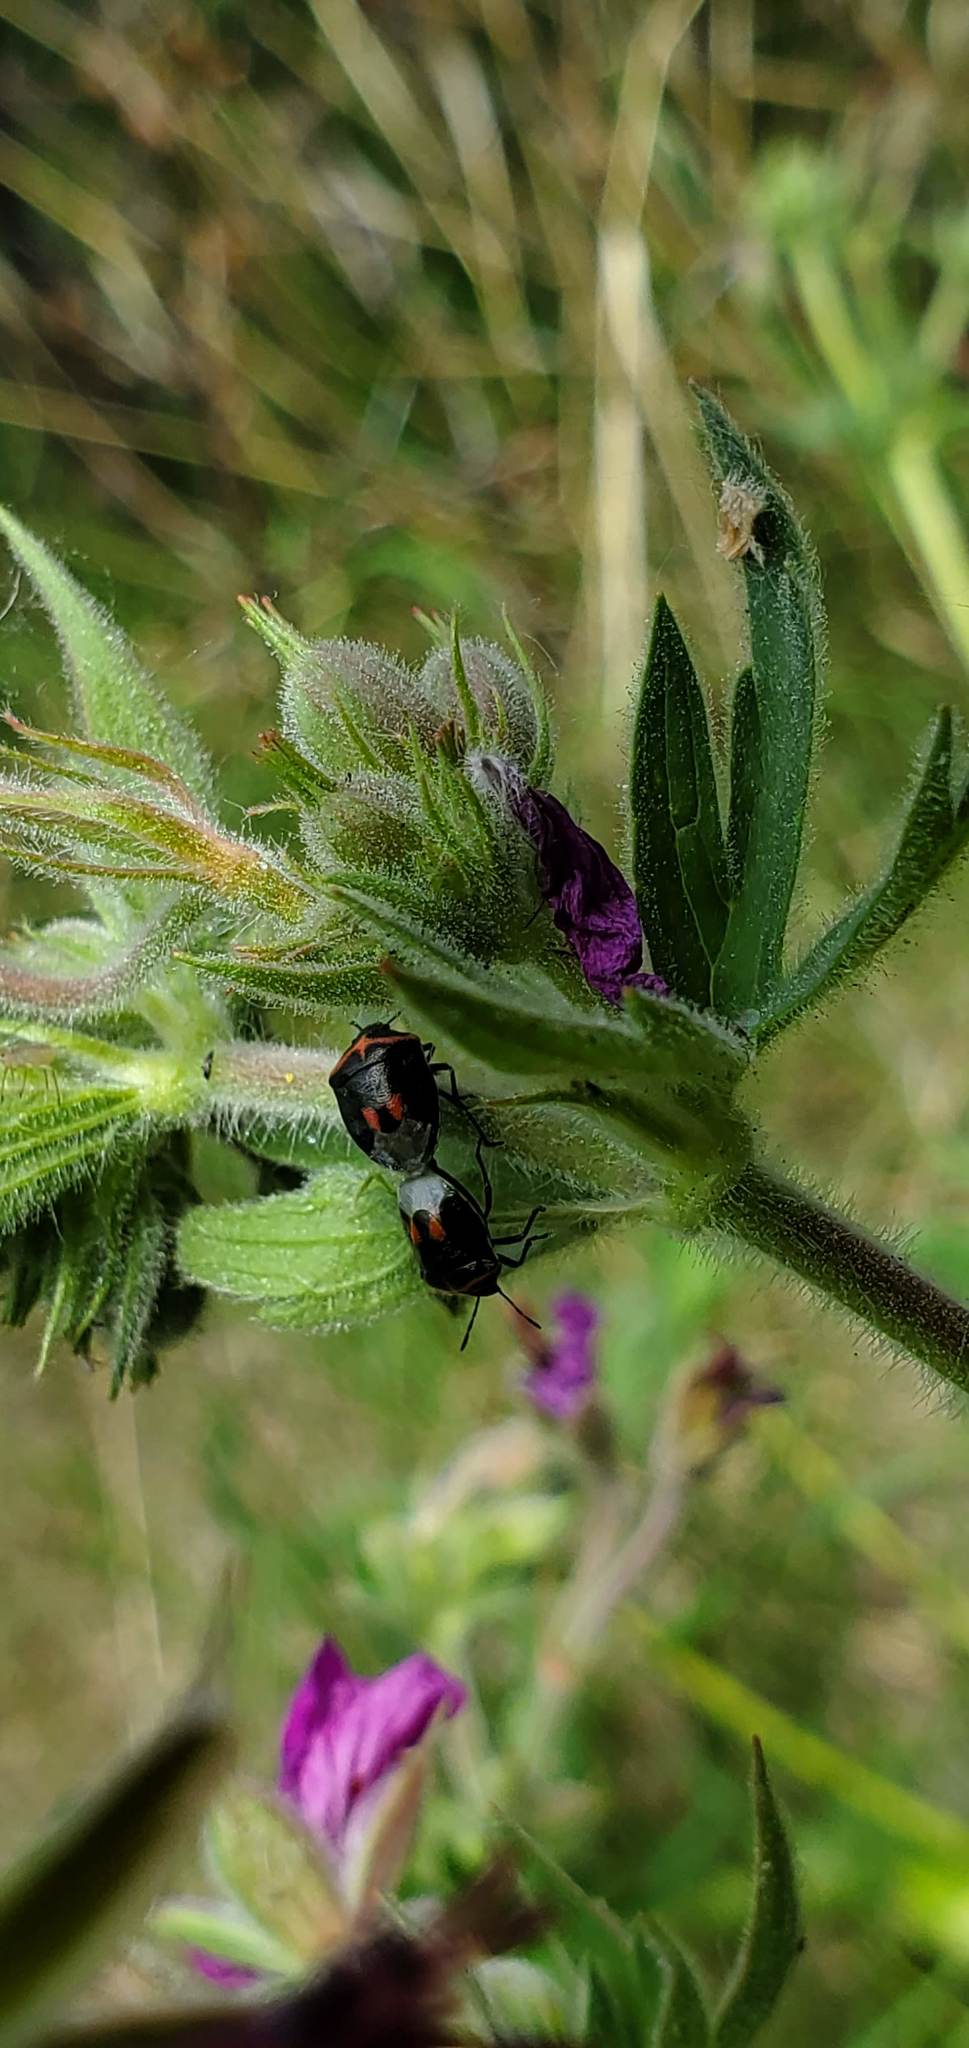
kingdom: Animalia
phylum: Arthropoda
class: Insecta
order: Hemiptera
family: Pentatomidae
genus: Cosmopepla
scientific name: Cosmopepla lintneriana
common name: Twice-stabbed stink bug
